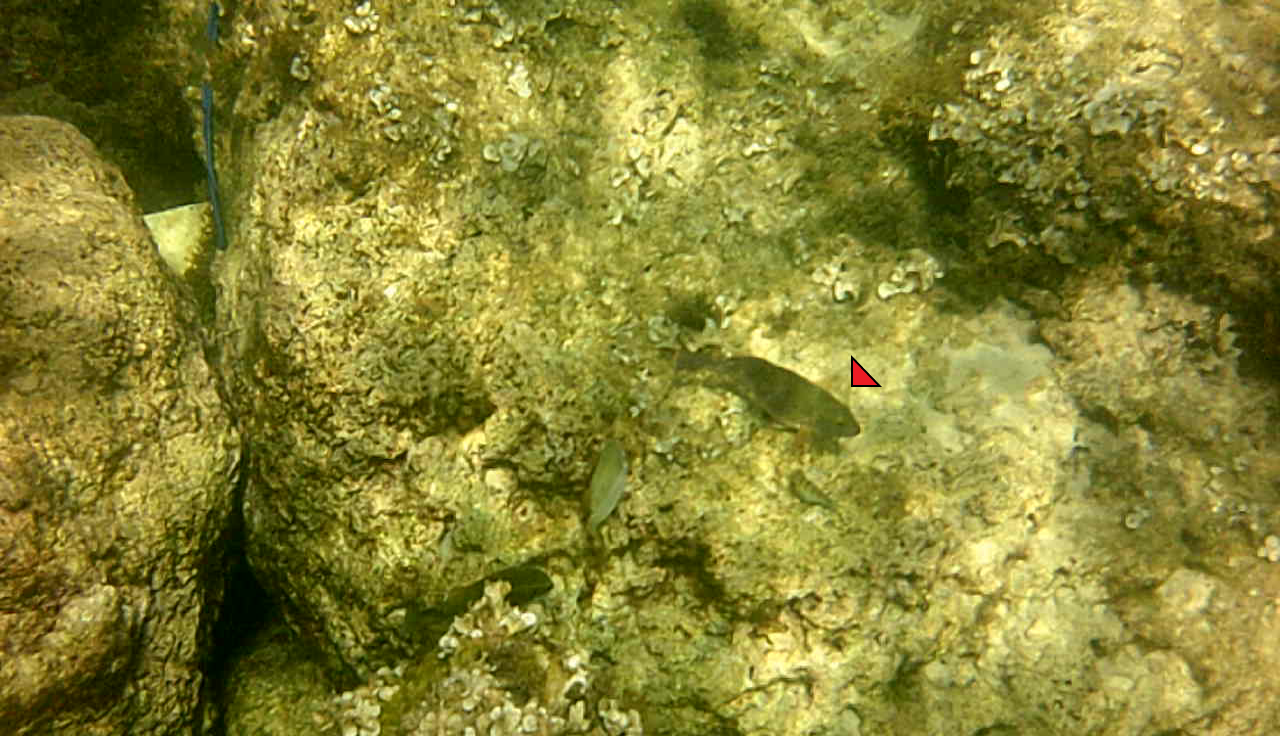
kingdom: Animalia
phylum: Chordata
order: Perciformes
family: Scaridae
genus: Sparisoma
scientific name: Sparisoma cretense
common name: Parrotfish
